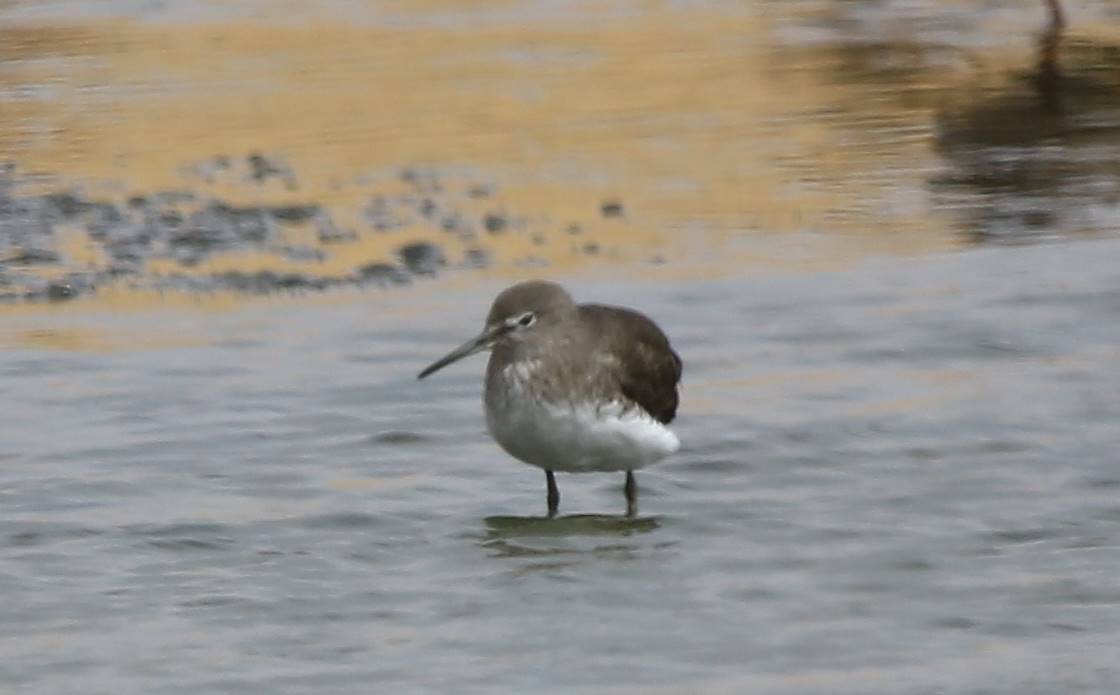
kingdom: Animalia
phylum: Chordata
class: Aves
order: Charadriiformes
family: Scolopacidae
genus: Tringa
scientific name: Tringa ochropus
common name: Green sandpiper
